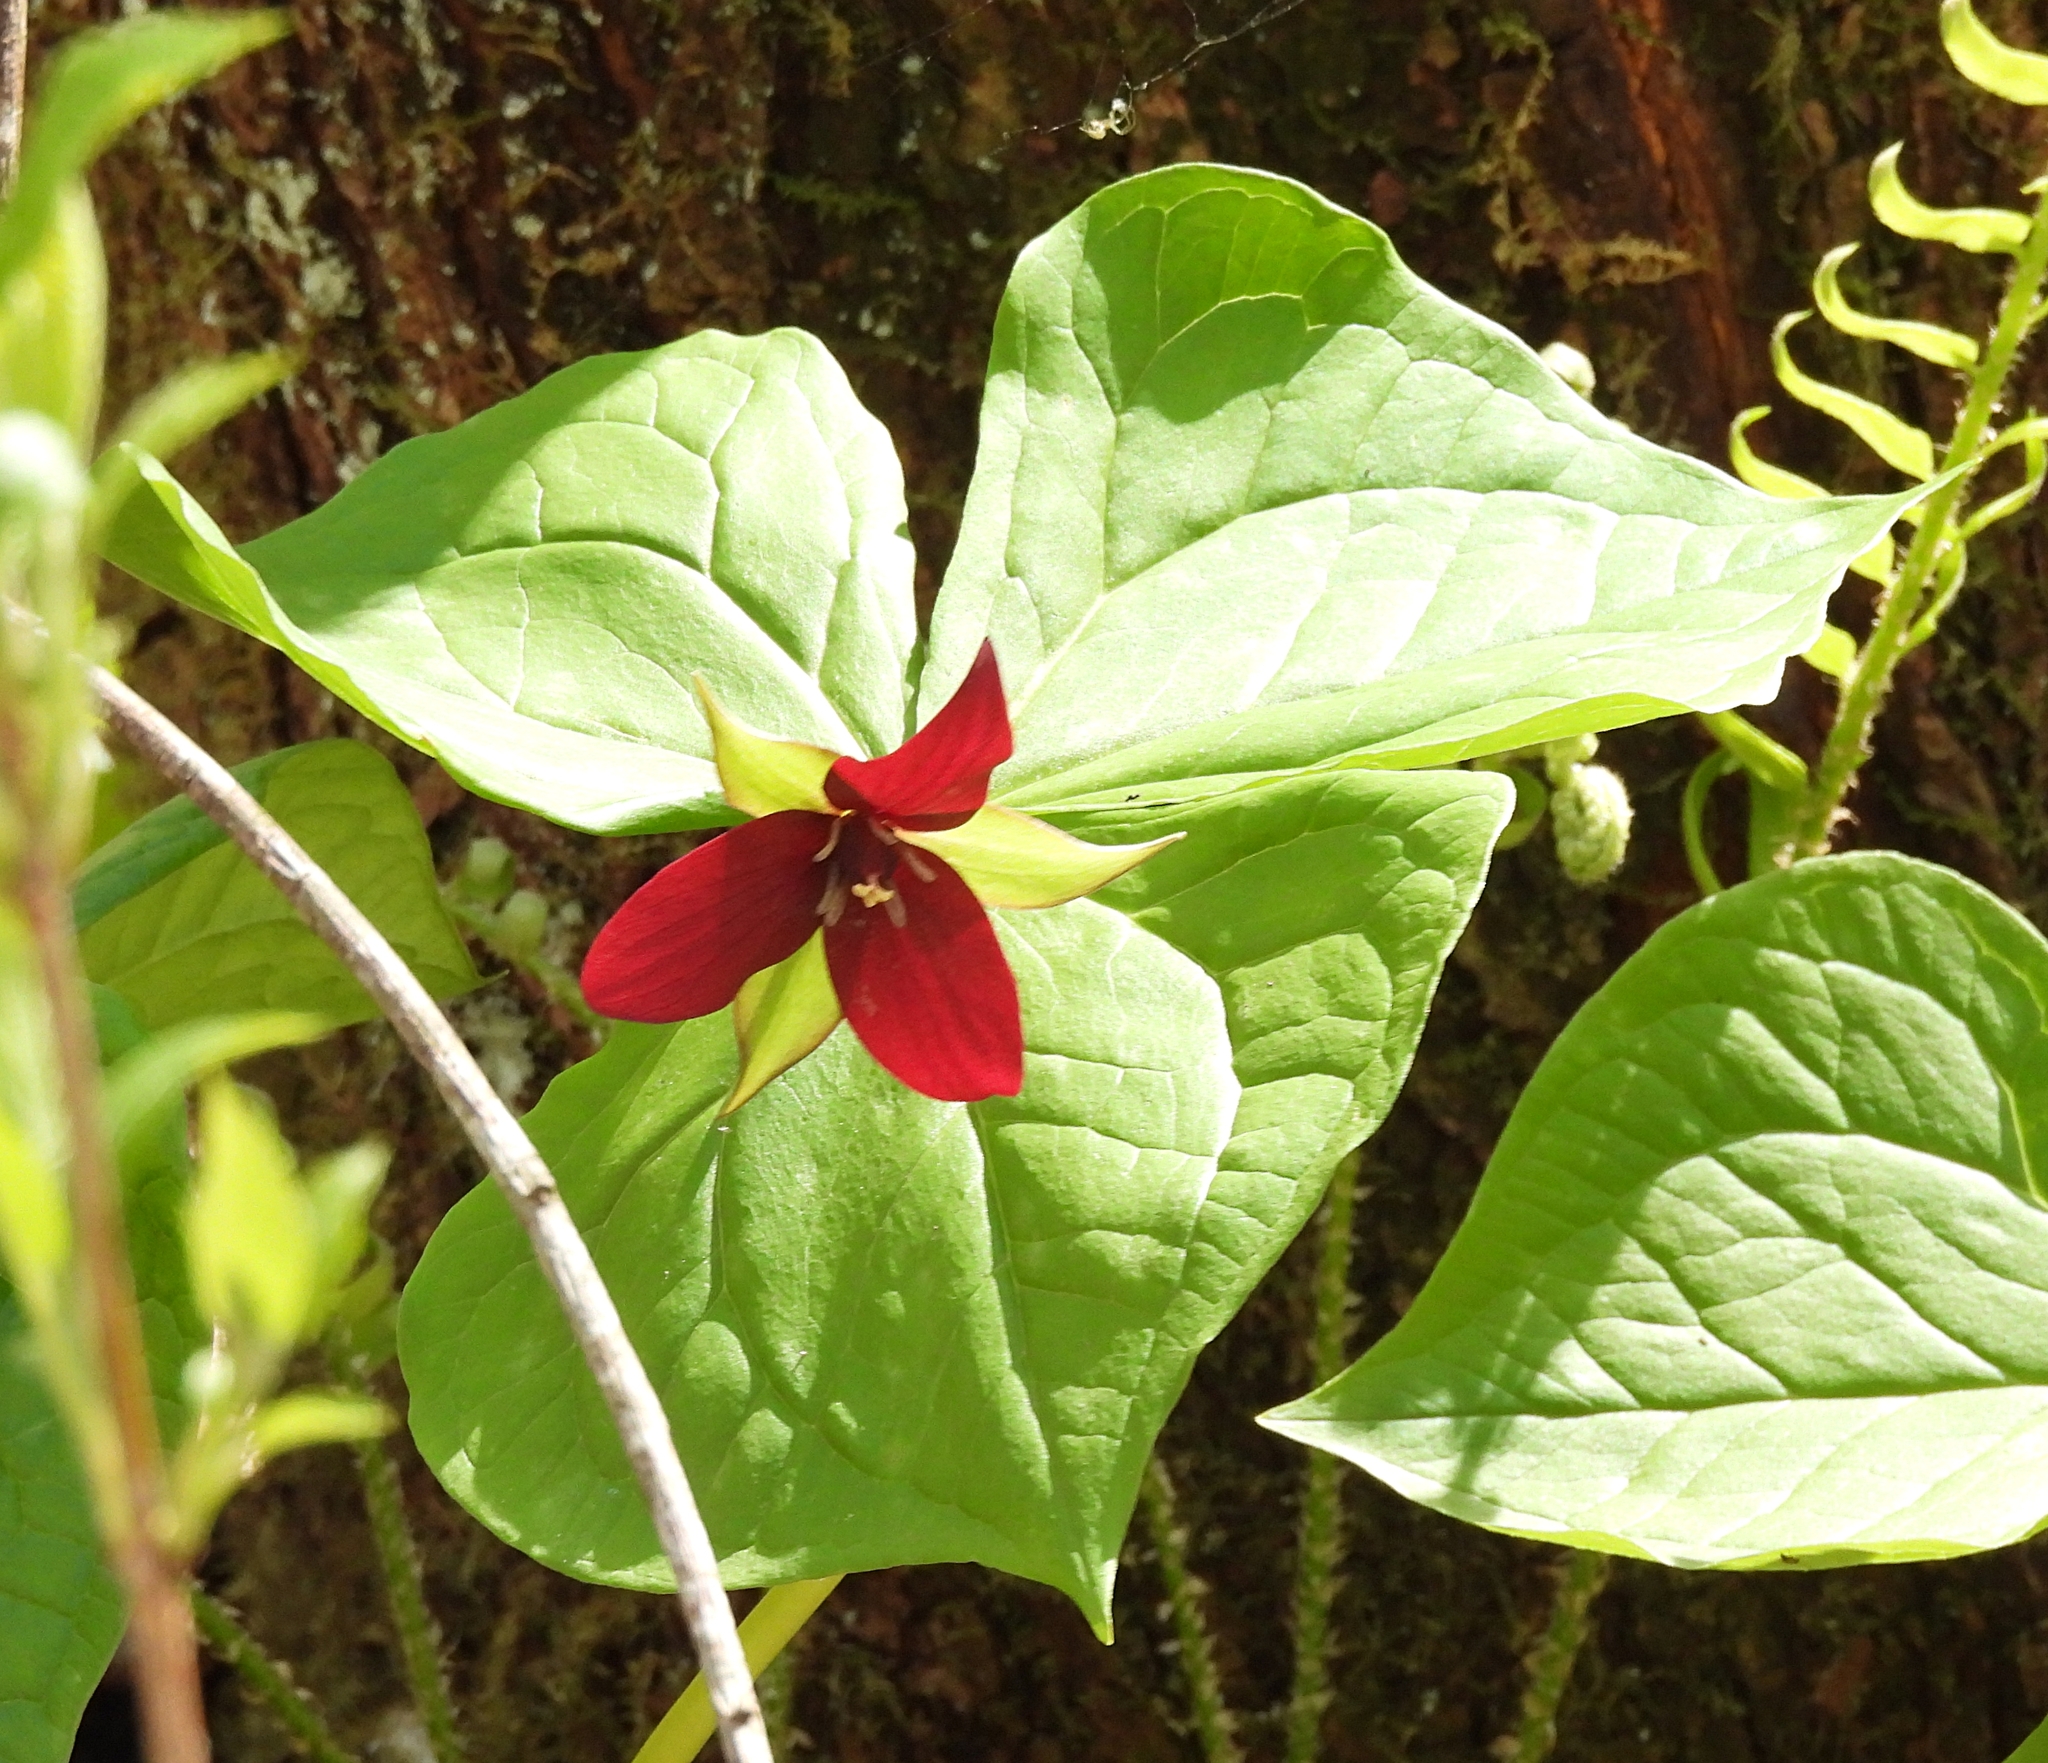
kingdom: Plantae
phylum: Tracheophyta
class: Liliopsida
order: Liliales
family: Melanthiaceae
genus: Trillium
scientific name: Trillium erectum
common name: Purple trillium
